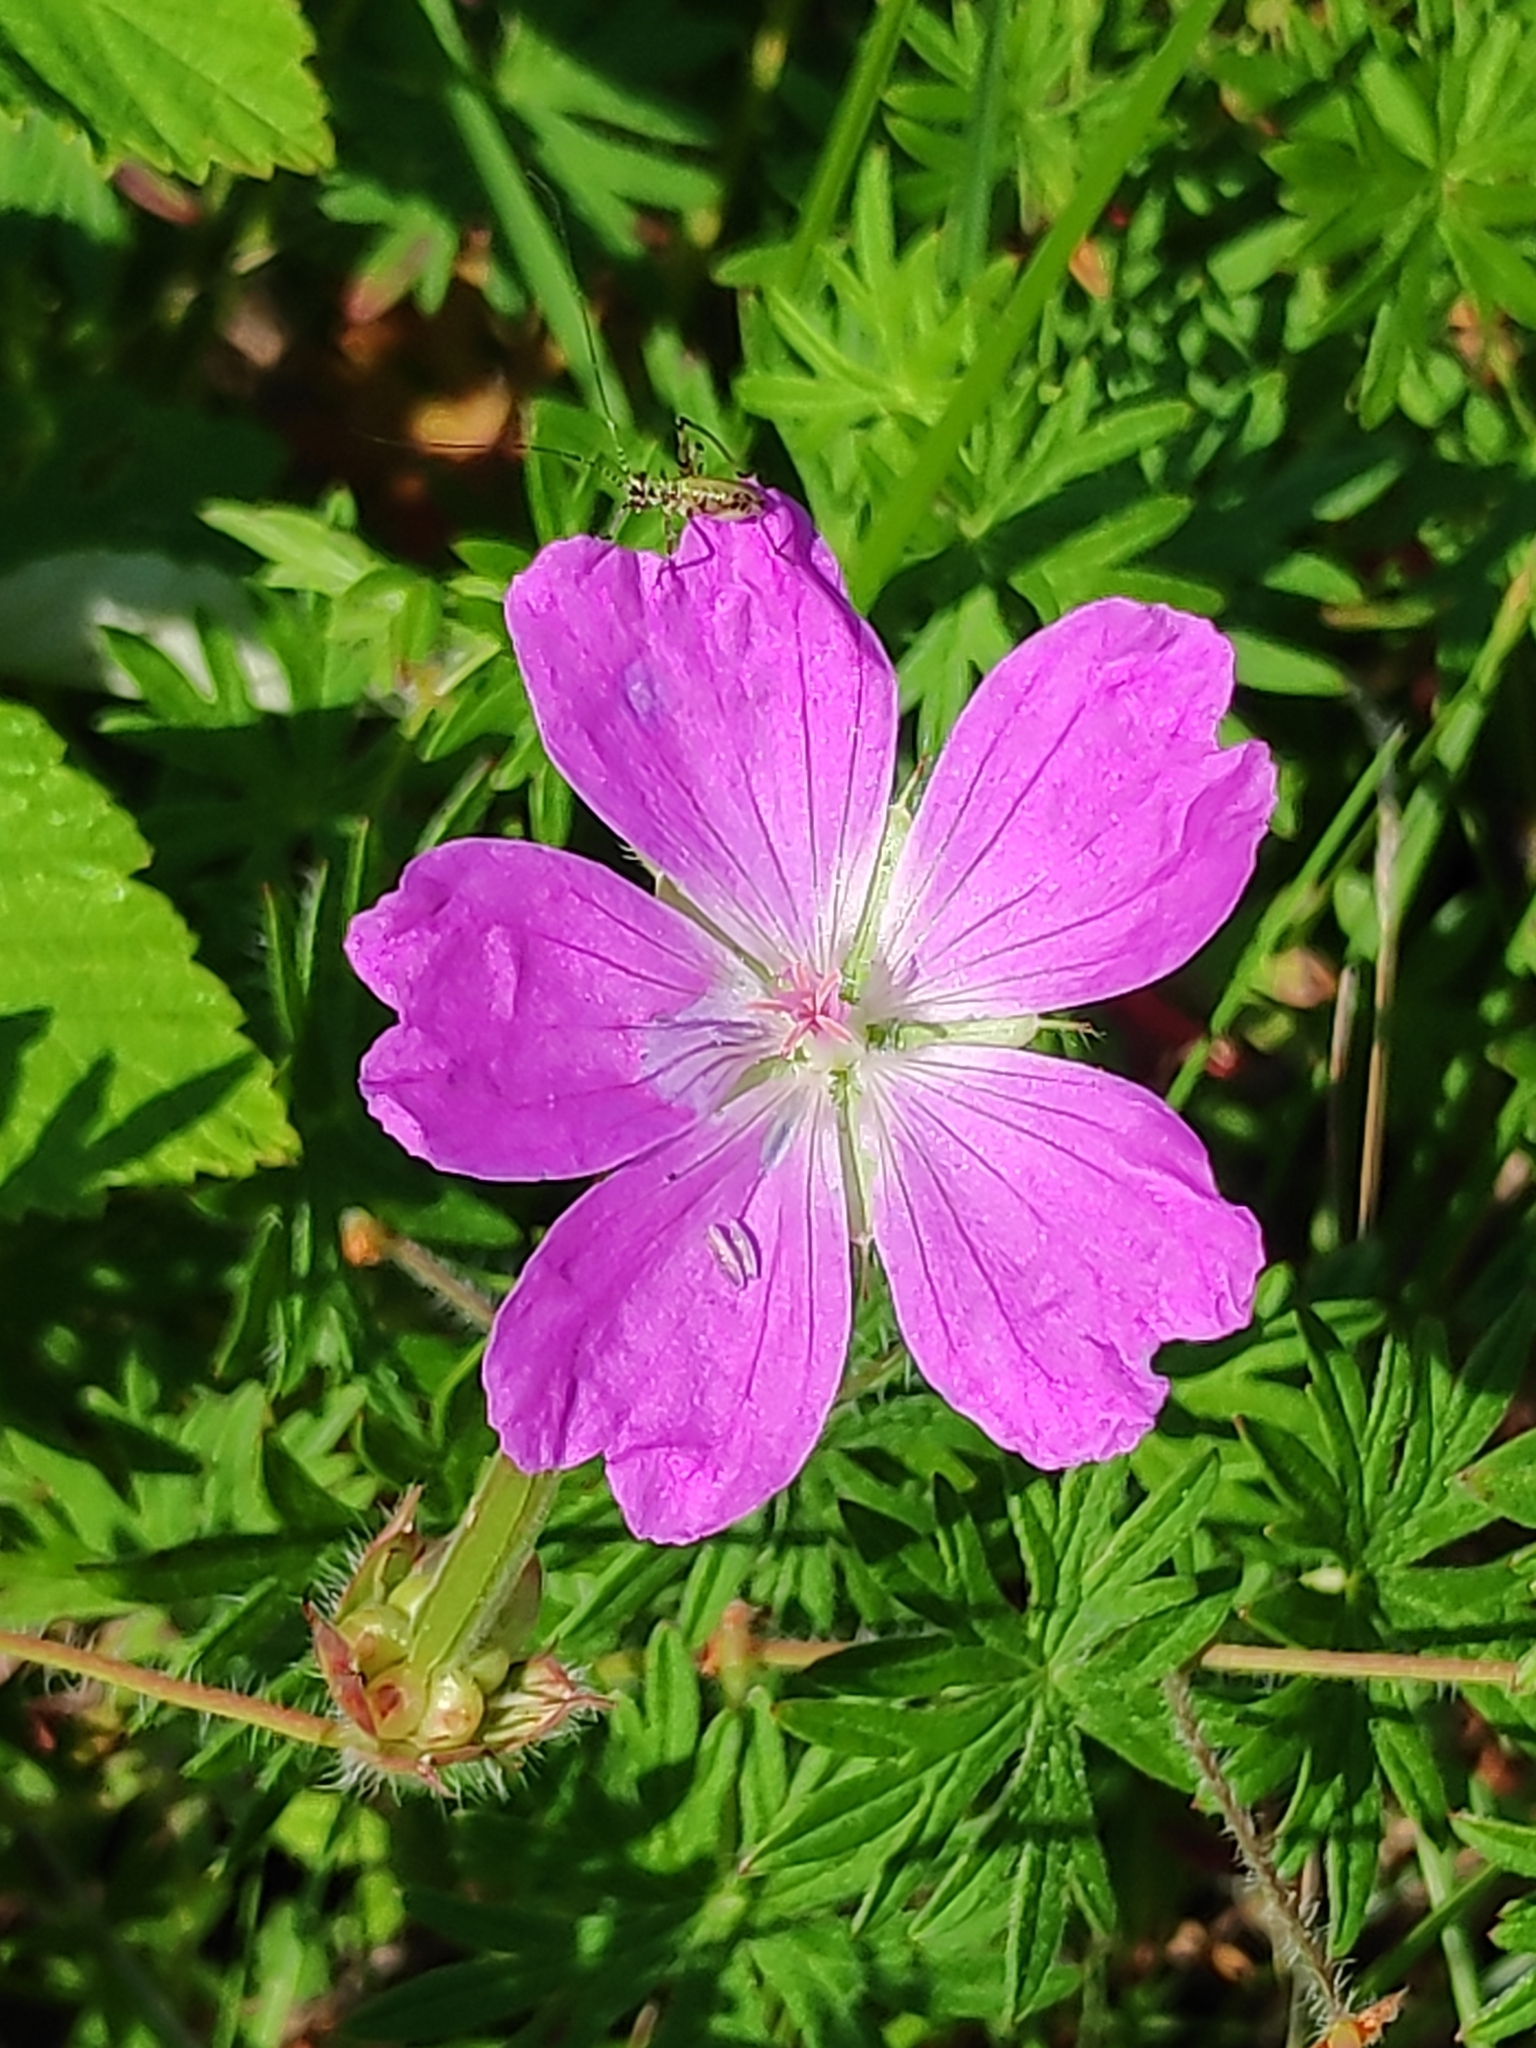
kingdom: Plantae
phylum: Tracheophyta
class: Magnoliopsida
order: Geraniales
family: Geraniaceae
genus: Geranium
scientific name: Geranium sanguineum
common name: Bloody crane's-bill
